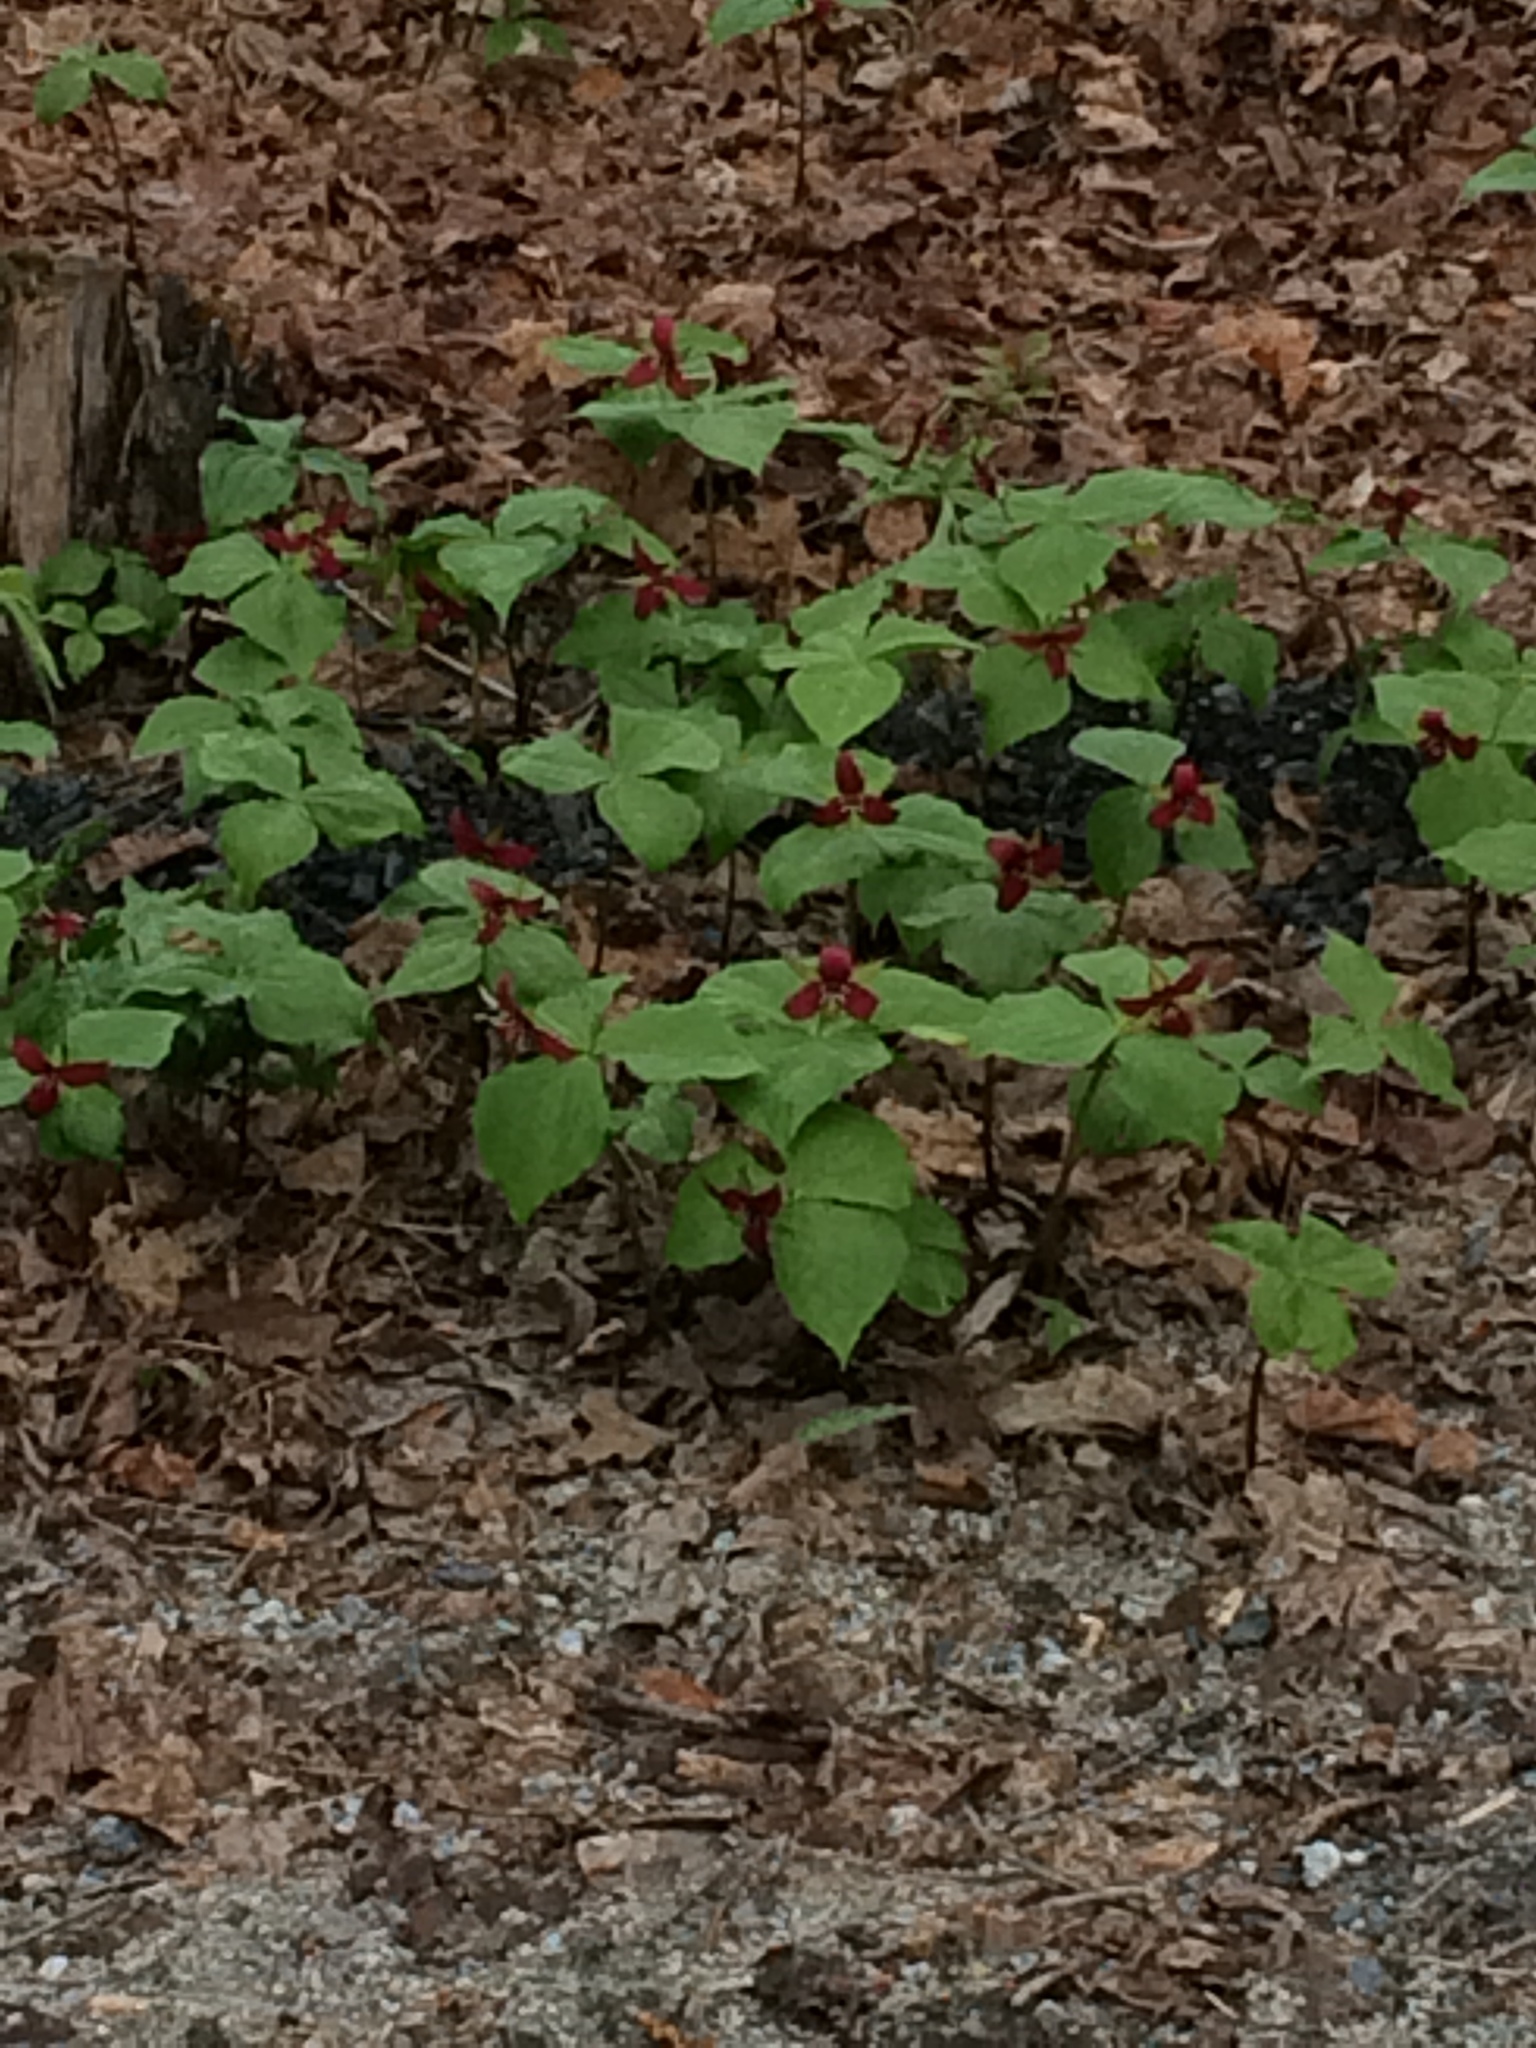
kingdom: Plantae
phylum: Tracheophyta
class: Liliopsida
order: Liliales
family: Melanthiaceae
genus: Trillium
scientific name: Trillium erectum
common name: Purple trillium
